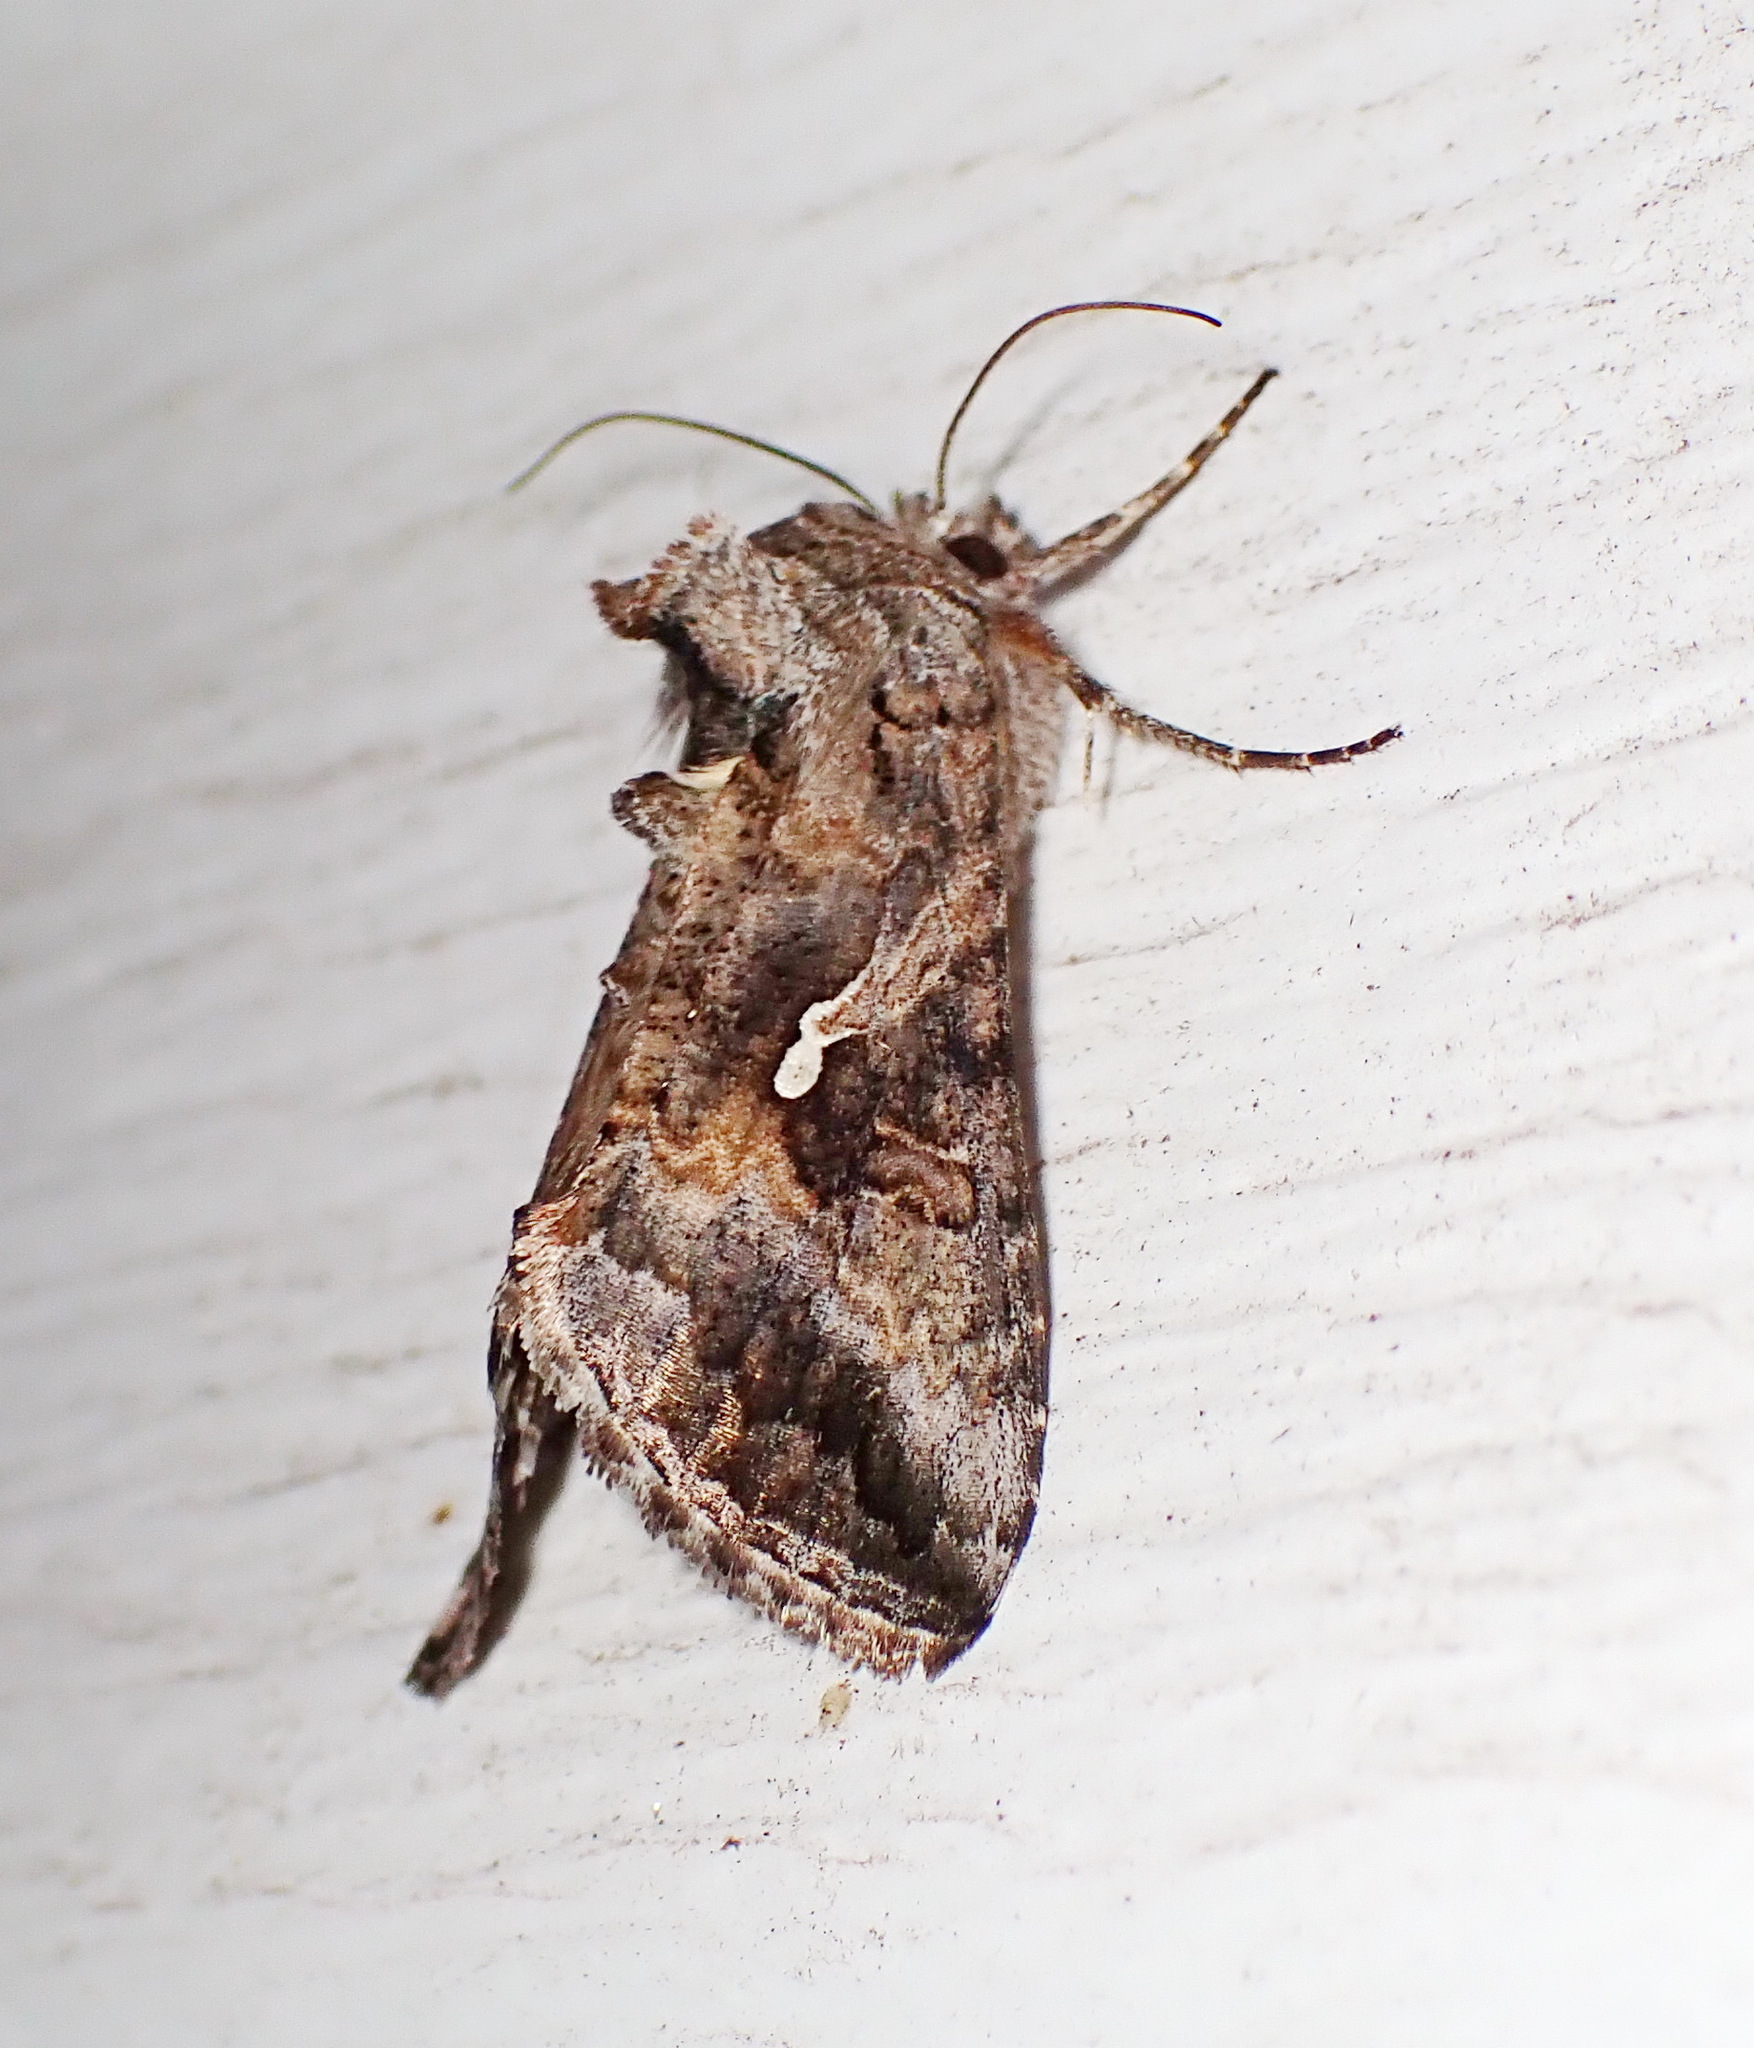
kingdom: Animalia
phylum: Arthropoda
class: Insecta
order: Lepidoptera
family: Noctuidae
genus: Rachiplusia
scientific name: Rachiplusia ou
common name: Gray looper moth
